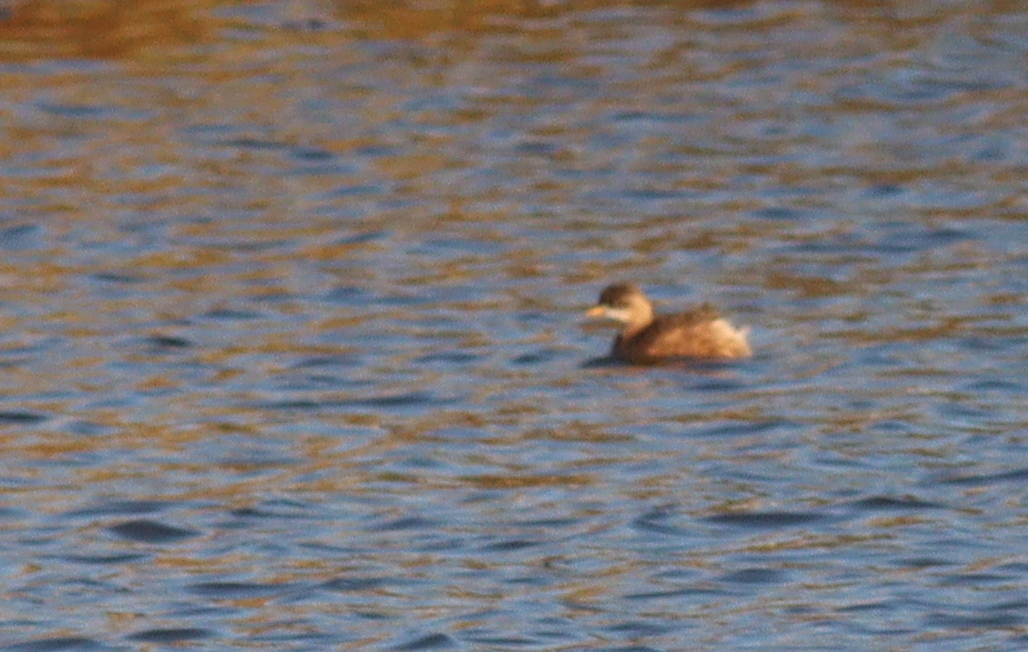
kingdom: Animalia
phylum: Chordata
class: Aves
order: Podicipediformes
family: Podicipedidae
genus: Tachybaptus
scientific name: Tachybaptus ruficollis
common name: Little grebe
